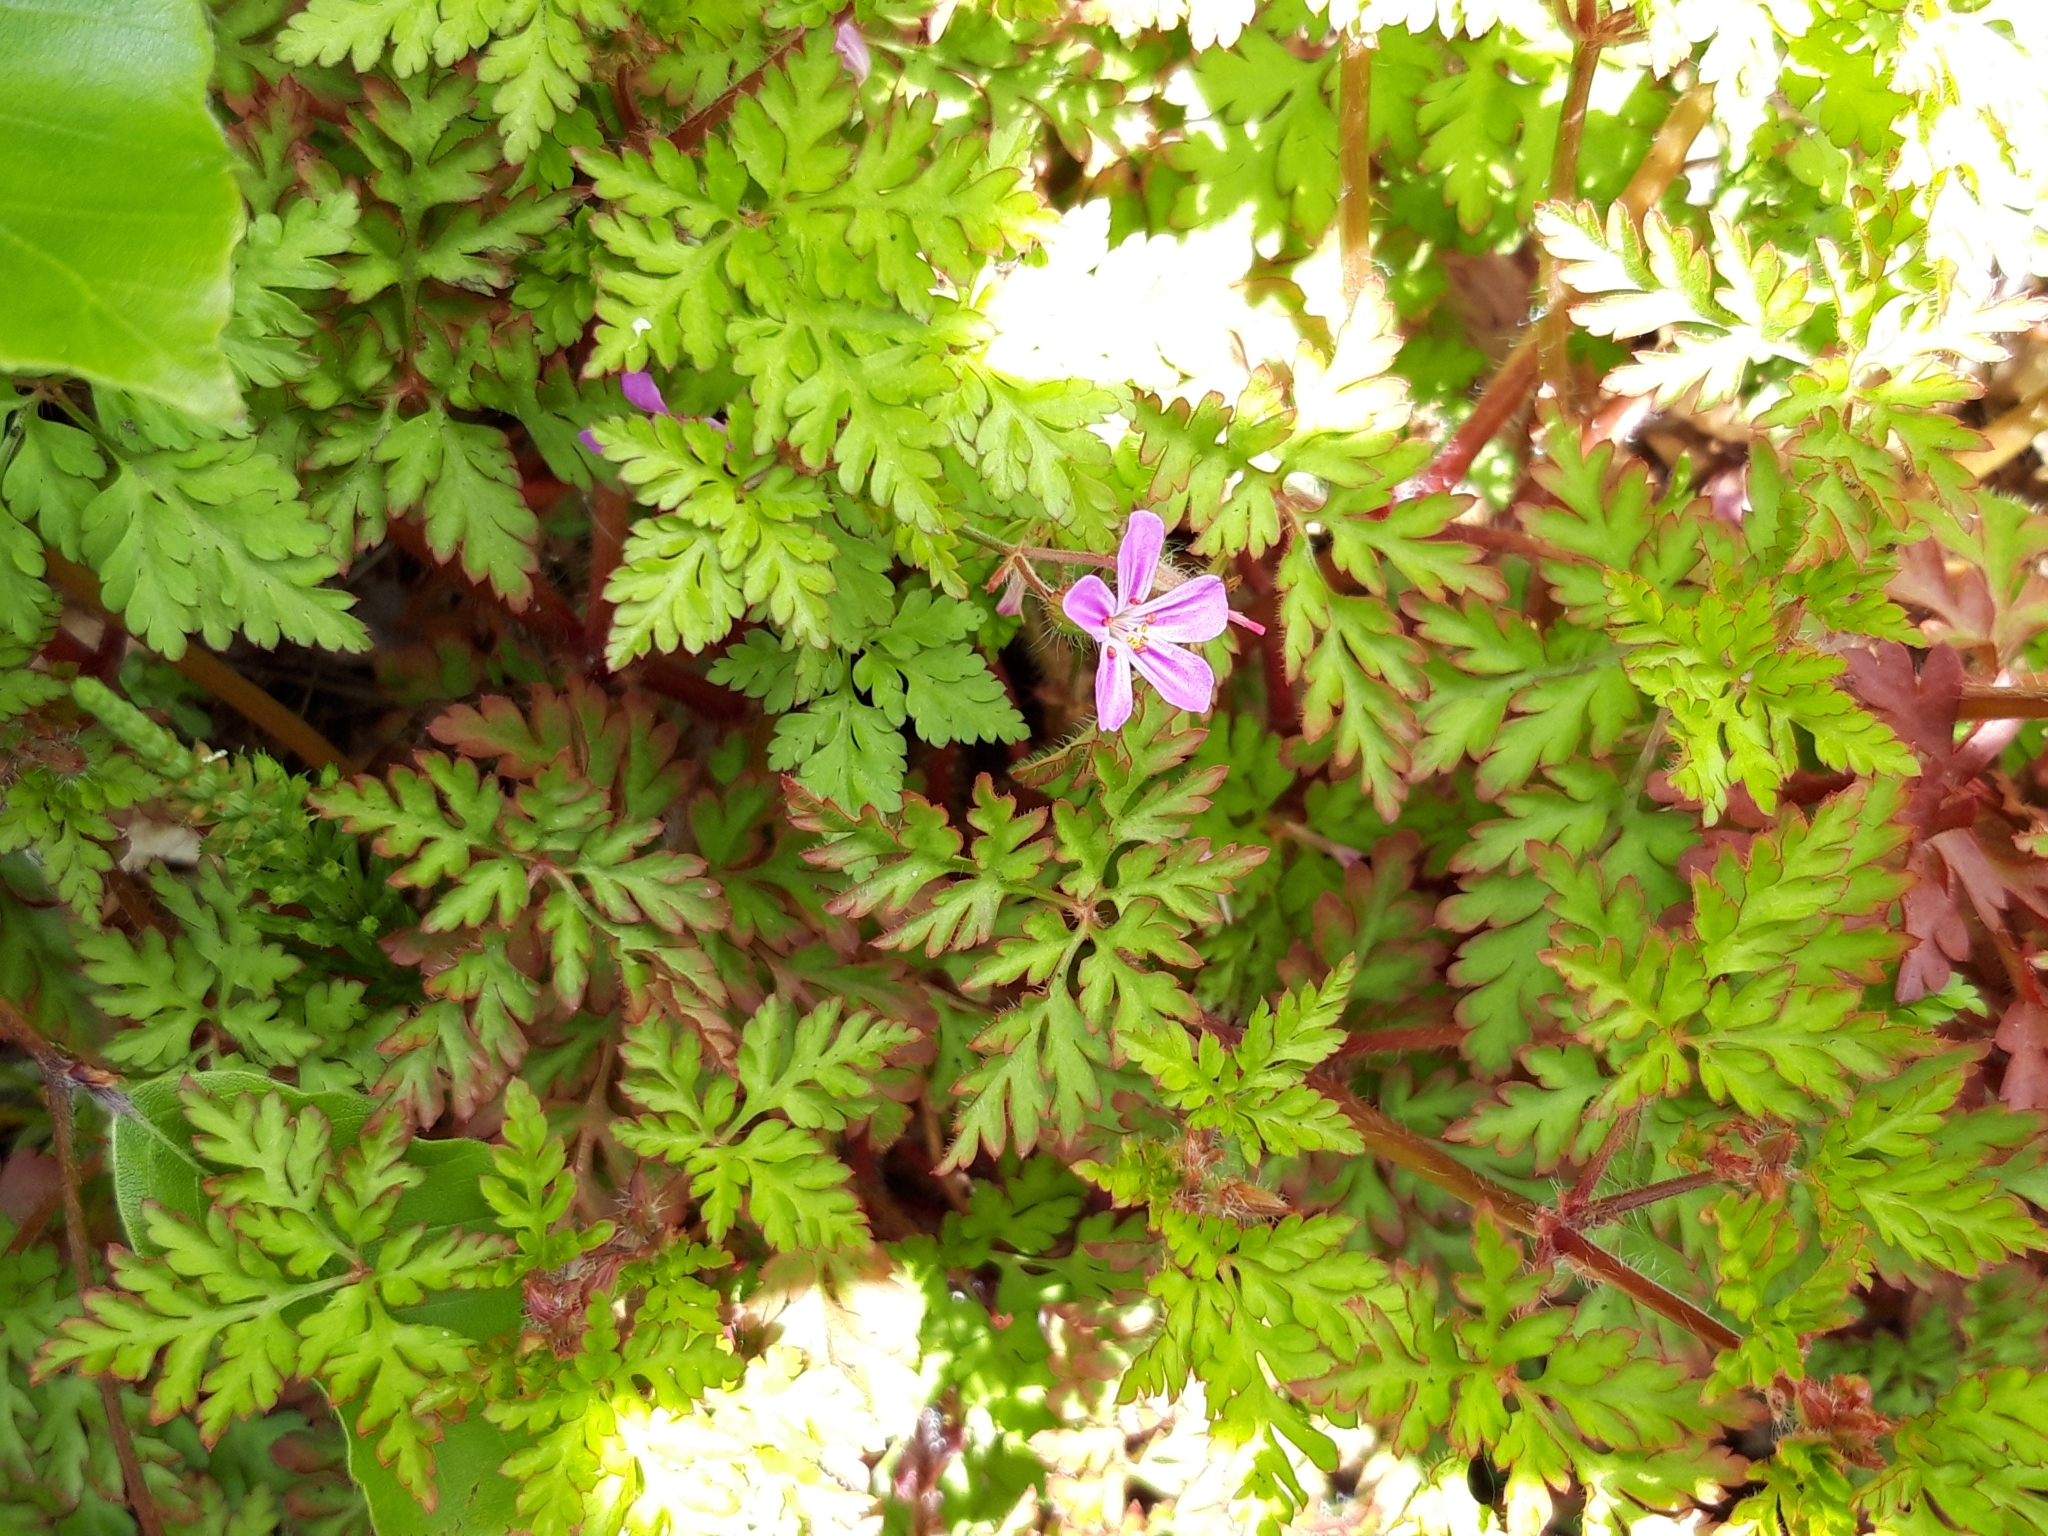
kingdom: Plantae
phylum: Tracheophyta
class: Magnoliopsida
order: Geraniales
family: Geraniaceae
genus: Geranium
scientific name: Geranium robertianum
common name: Herb-robert
